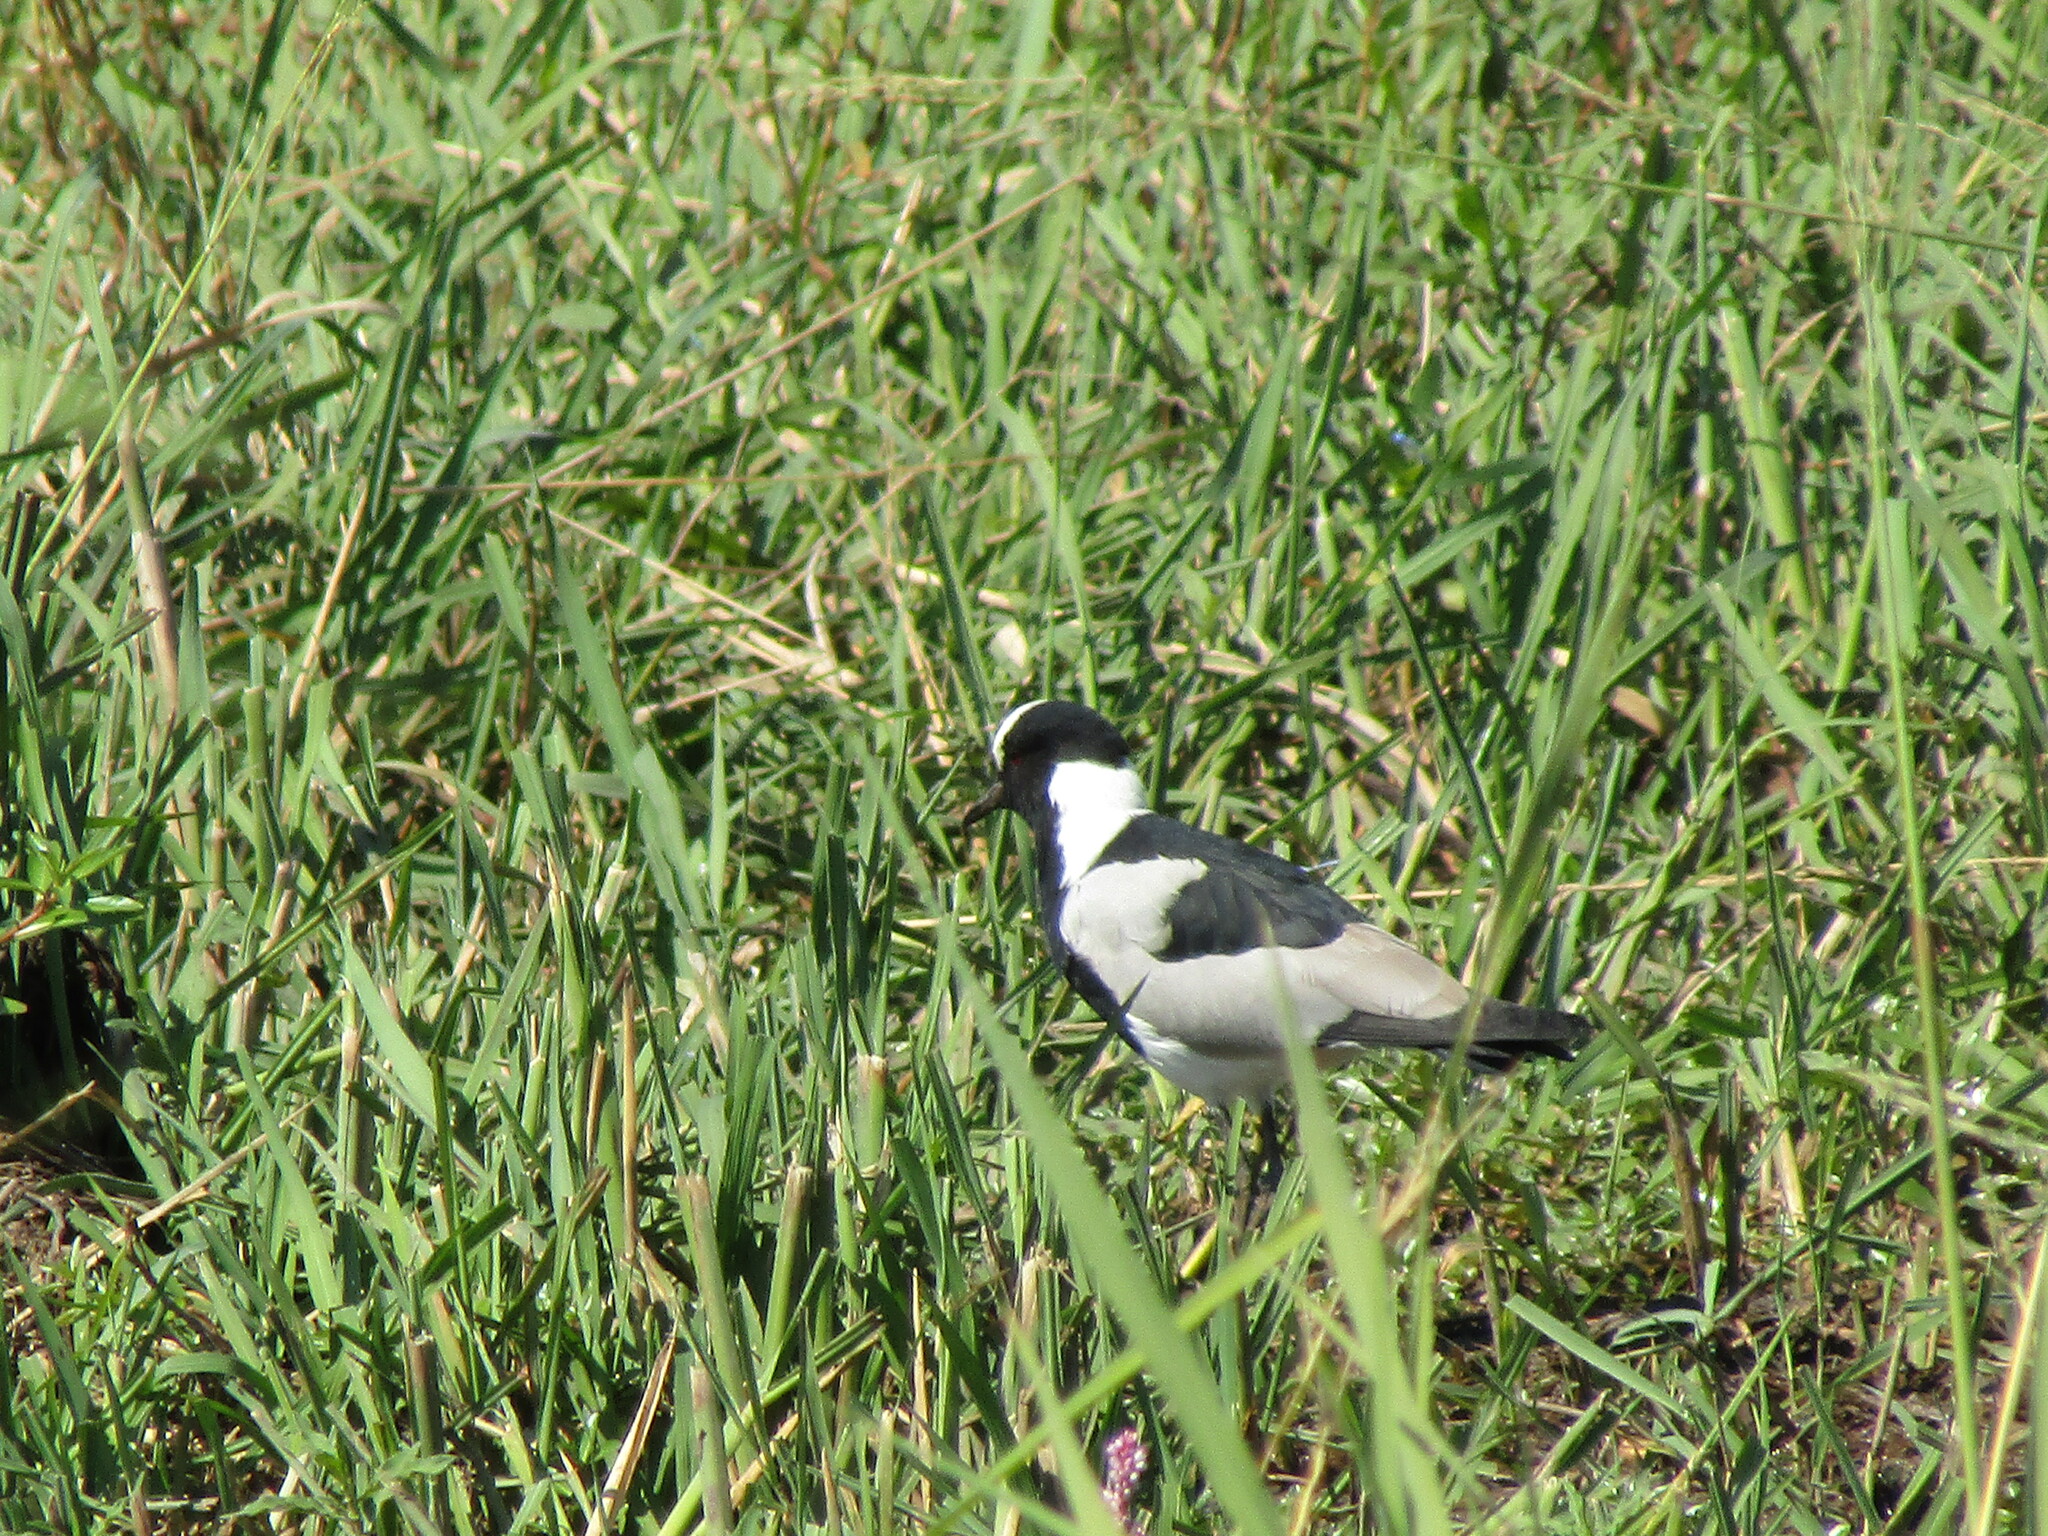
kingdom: Animalia
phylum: Chordata
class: Aves
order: Charadriiformes
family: Charadriidae
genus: Vanellus
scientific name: Vanellus armatus
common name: Blacksmith lapwing
